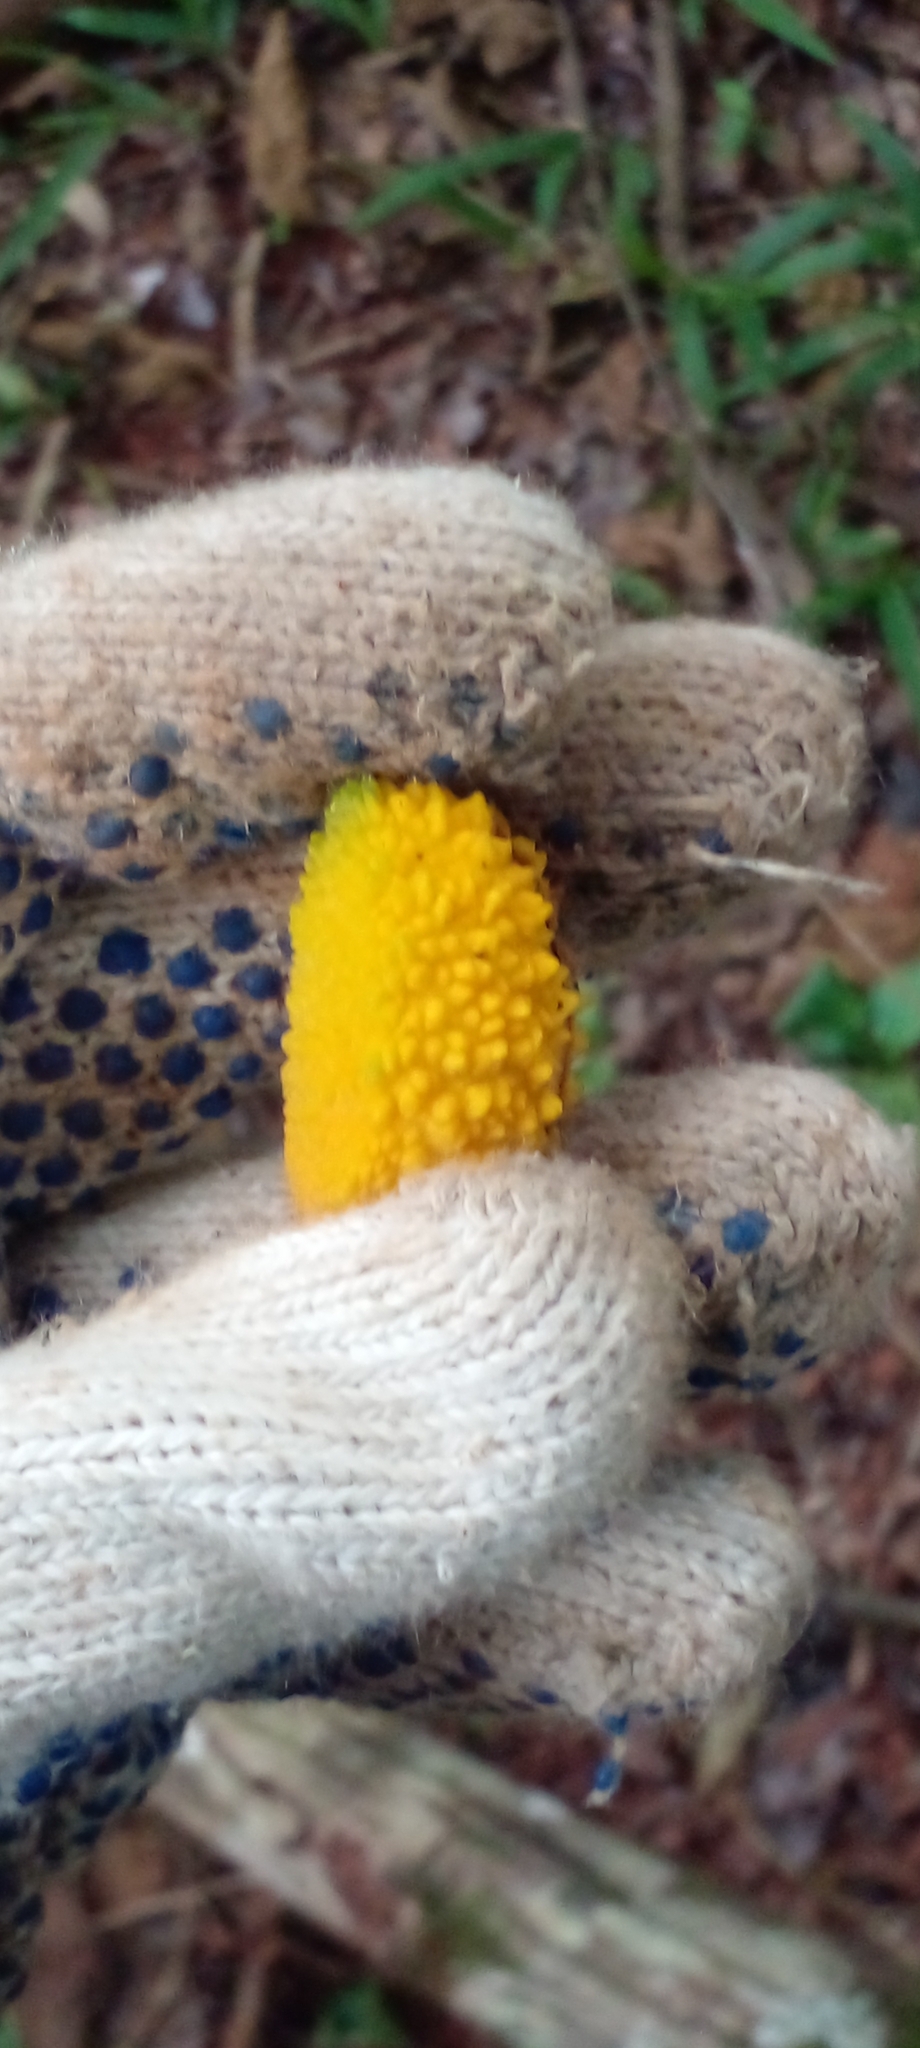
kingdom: Plantae
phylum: Tracheophyta
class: Magnoliopsida
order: Gentianales
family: Apocynaceae
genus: Tabernaemontana
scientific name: Tabernaemontana catharinensis
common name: Pinwheel-flower
